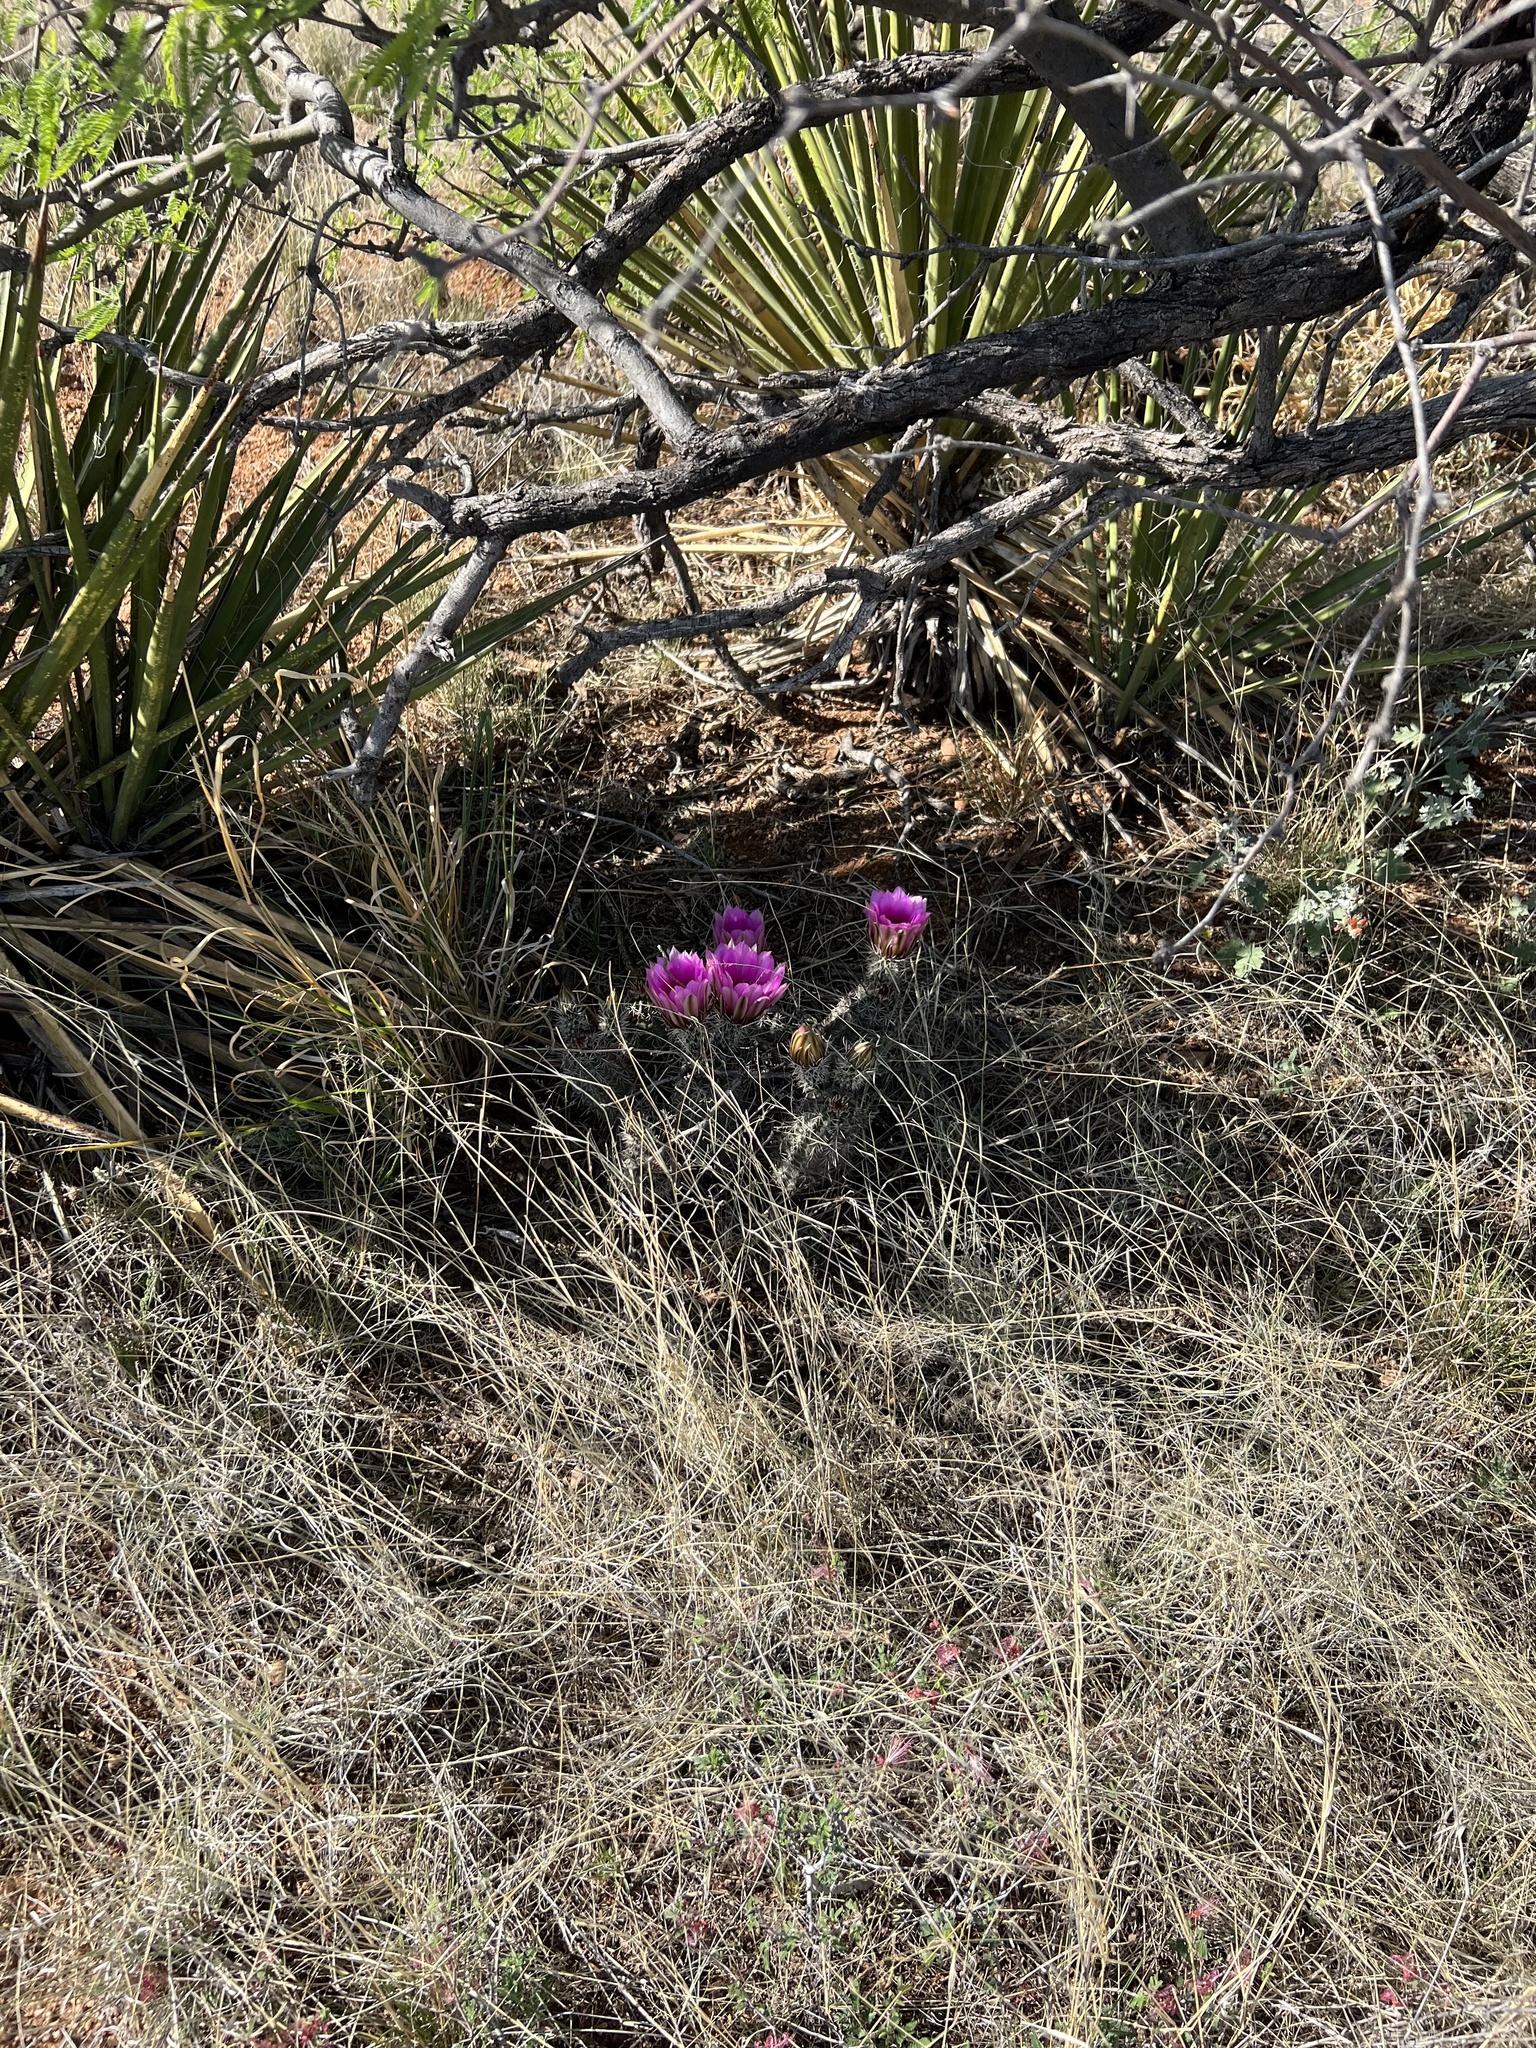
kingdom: Plantae
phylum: Tracheophyta
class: Magnoliopsida
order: Caryophyllales
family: Cactaceae
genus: Echinocereus
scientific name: Echinocereus fasciculatus
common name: Bundle hedgehog
